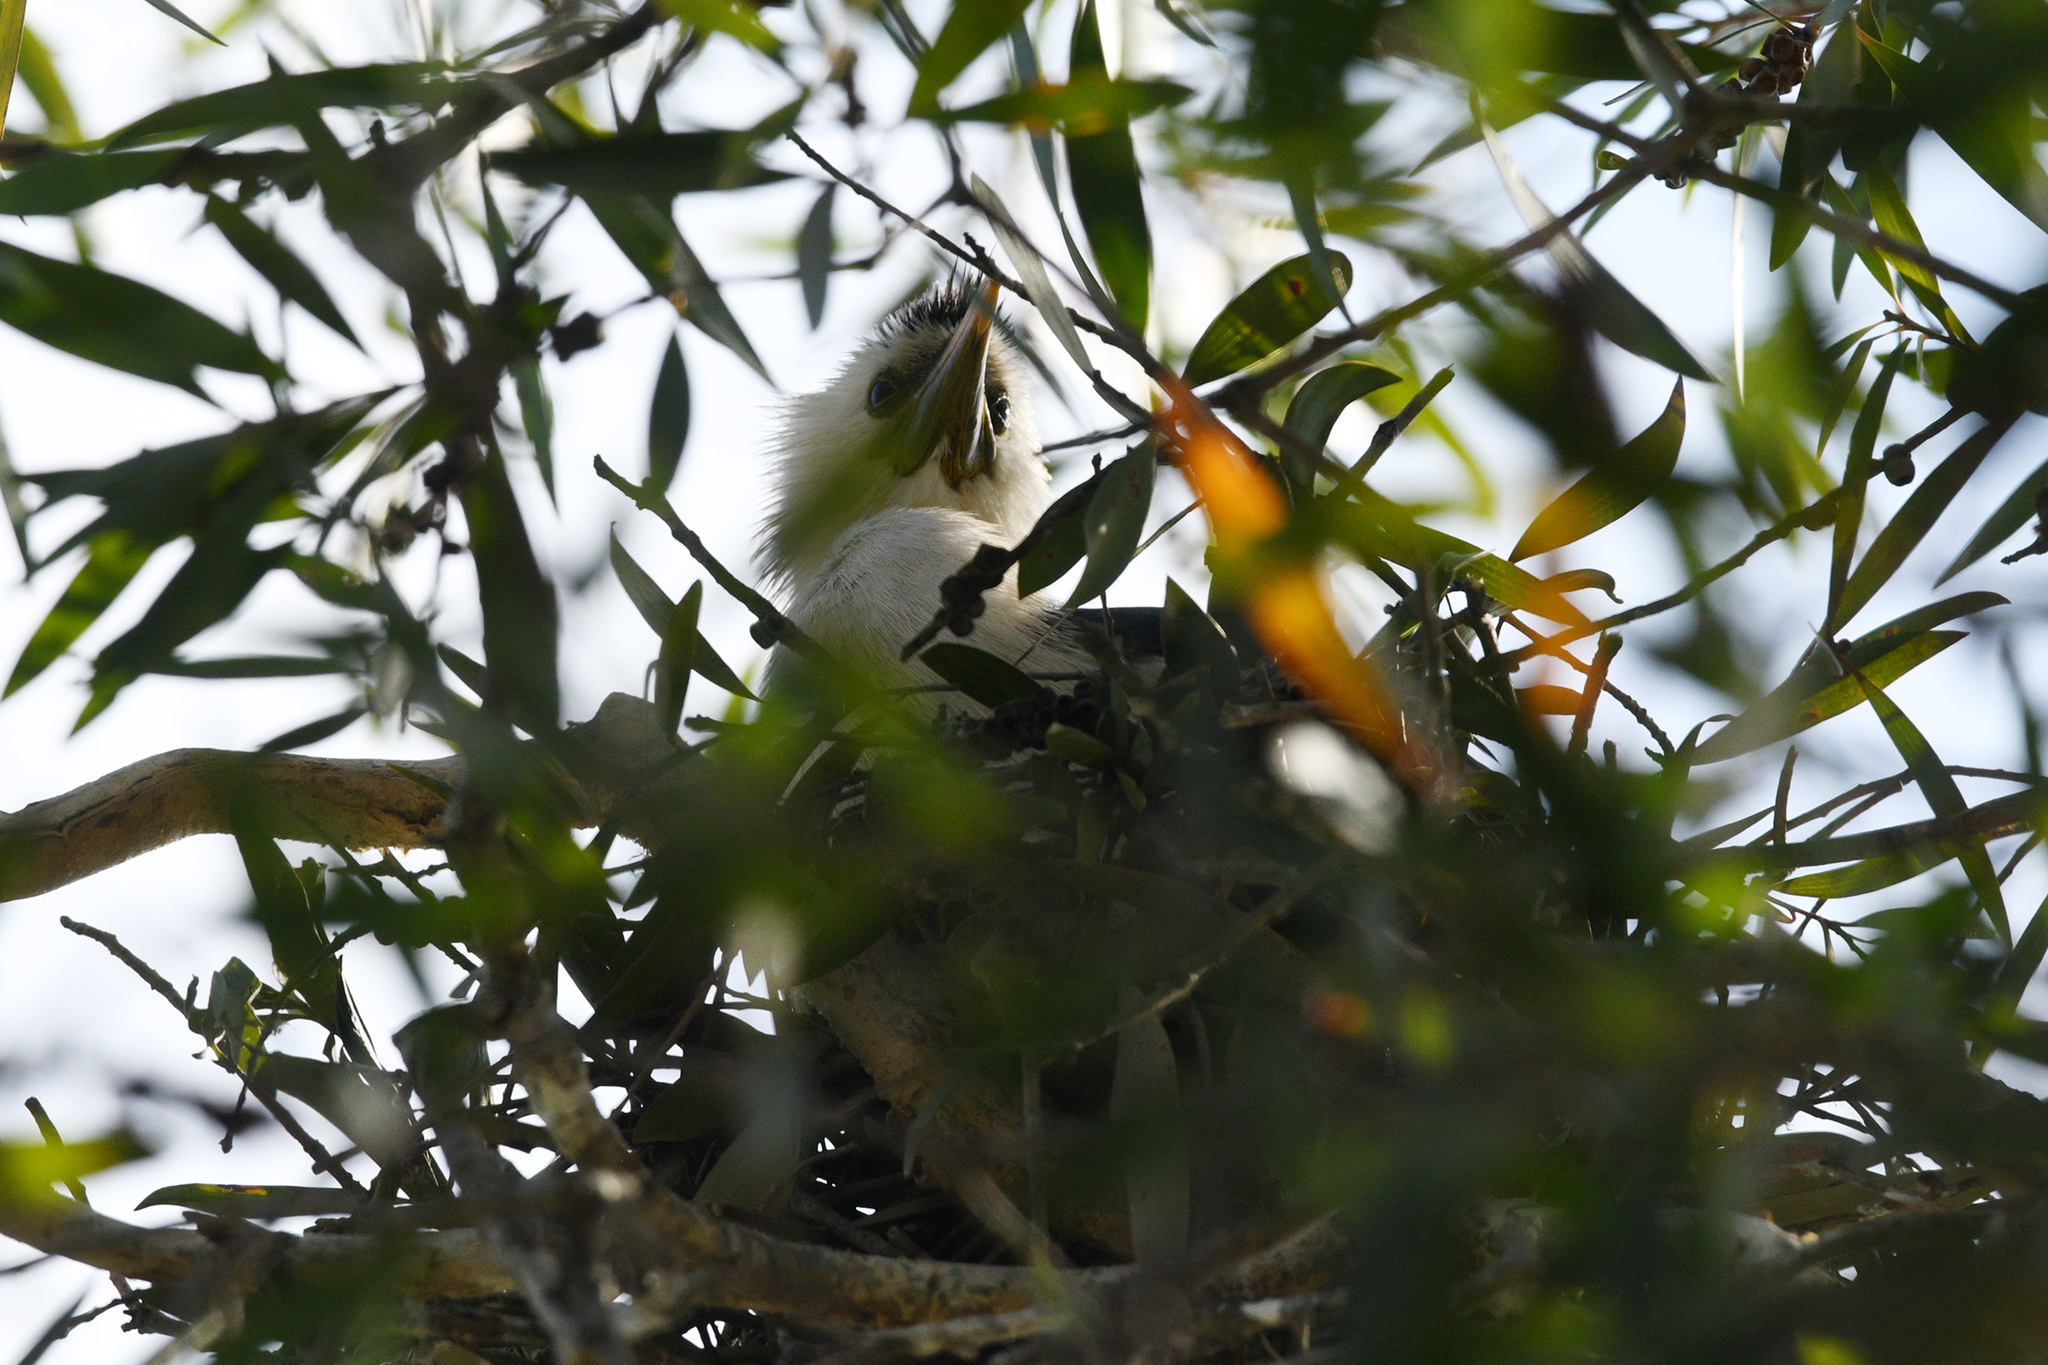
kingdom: Animalia
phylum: Chordata
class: Aves
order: Suliformes
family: Phalacrocoracidae
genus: Microcarbo
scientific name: Microcarbo melanoleucos
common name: Little pied cormorant
